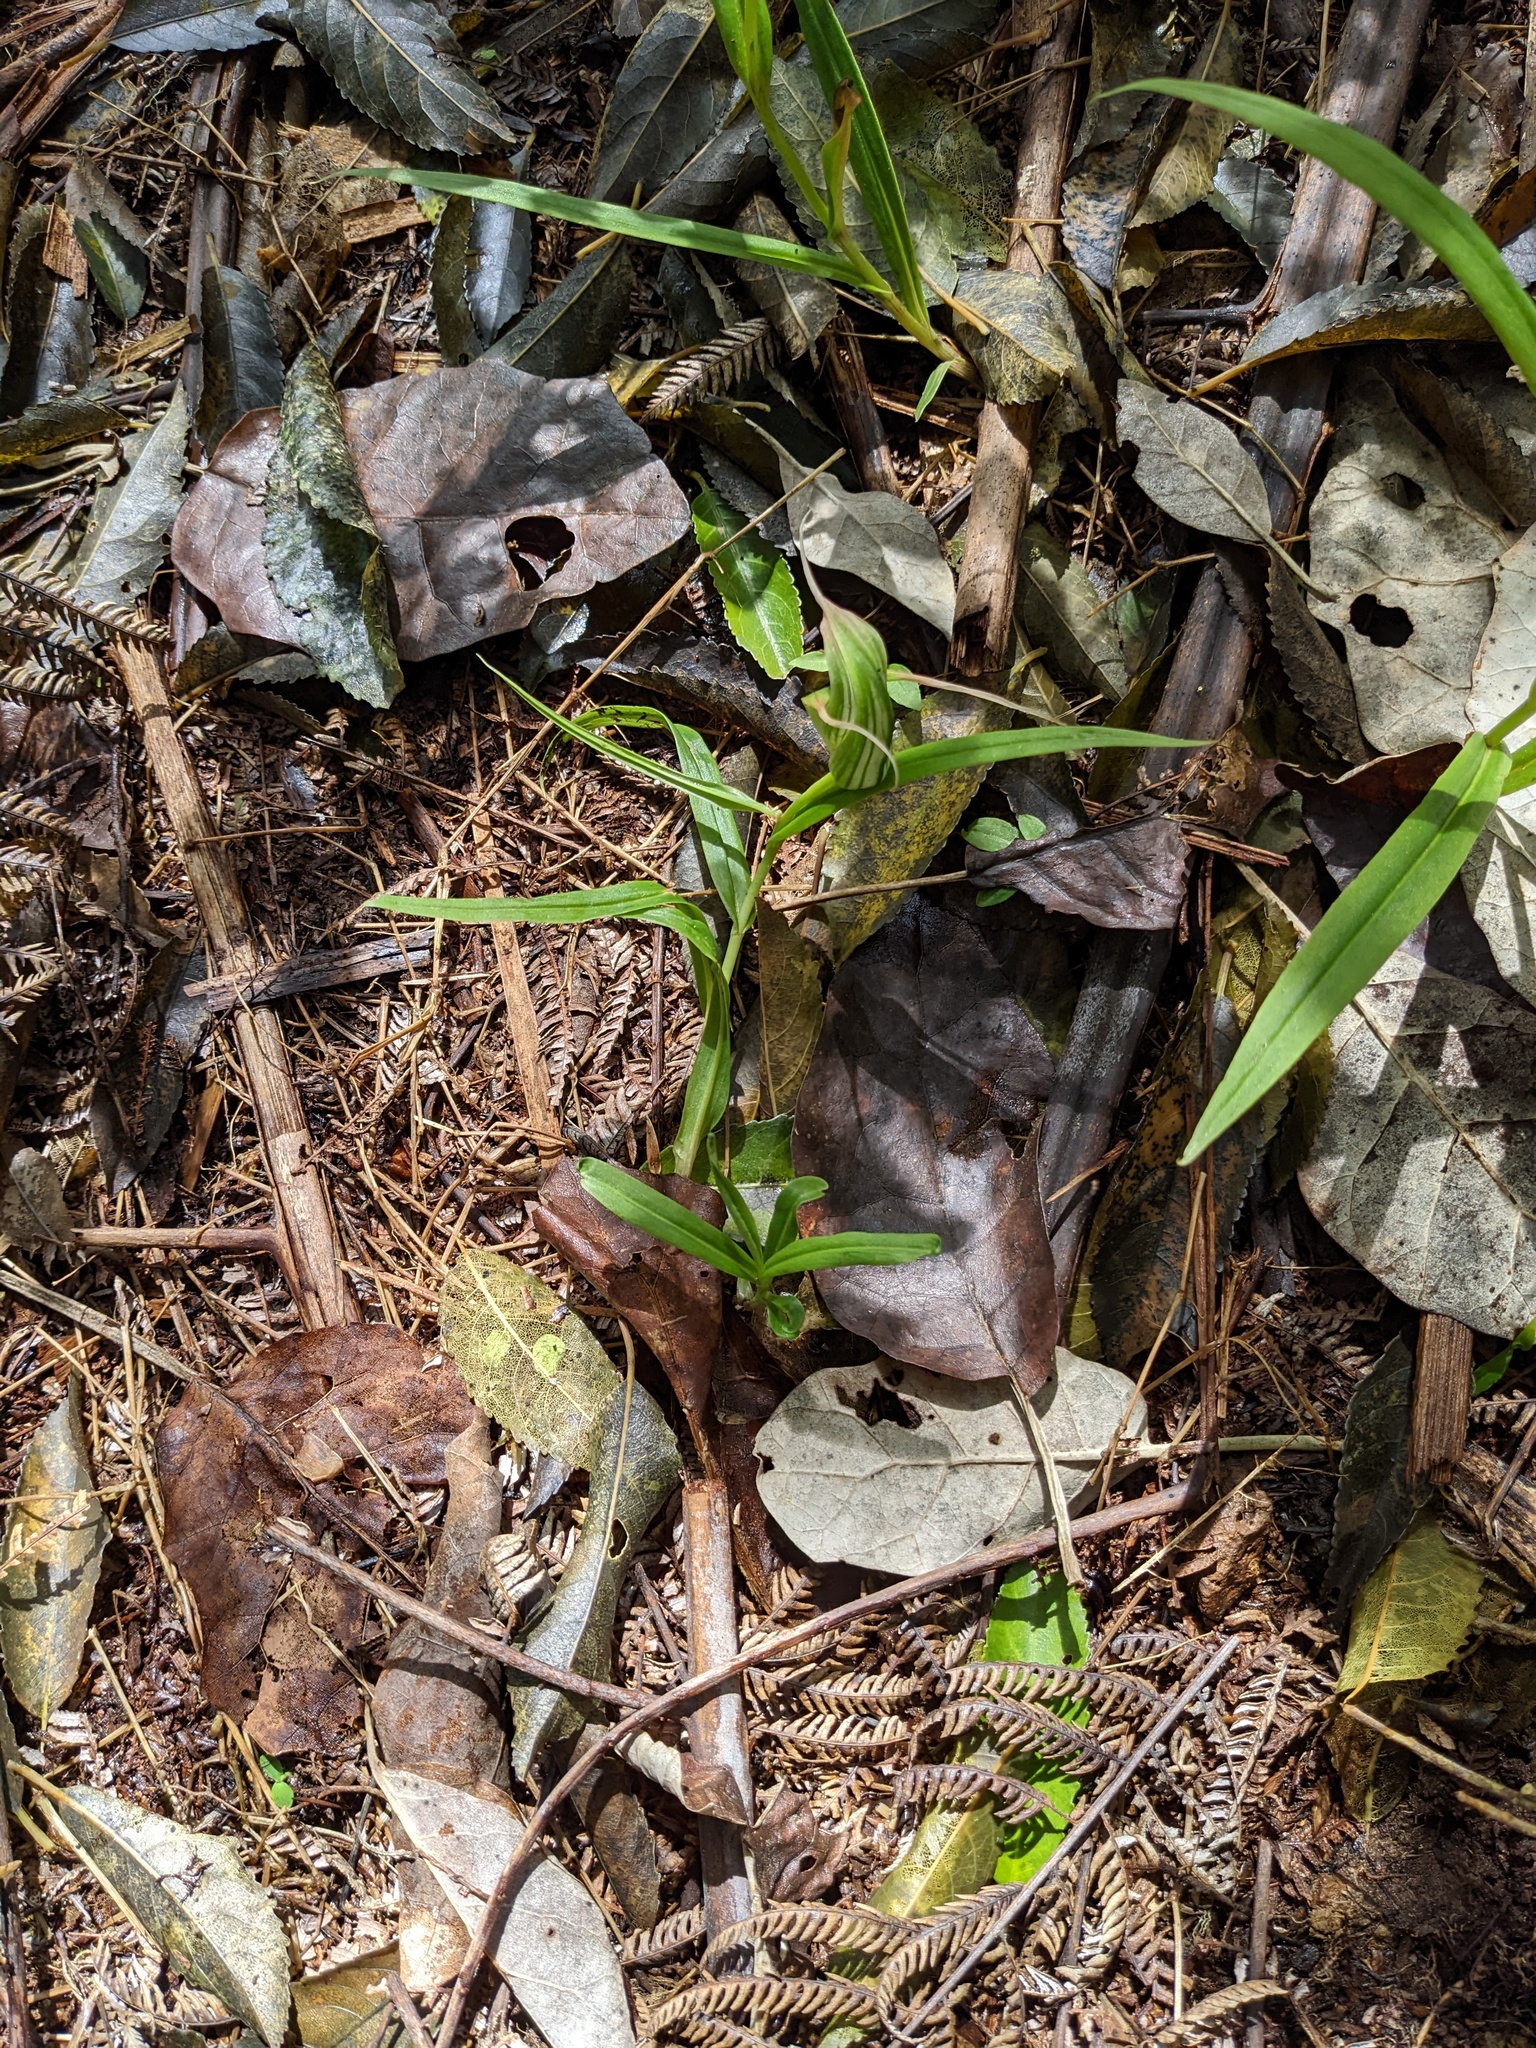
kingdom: Plantae
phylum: Tracheophyta
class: Liliopsida
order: Asparagales
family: Orchidaceae
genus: Pterostylis
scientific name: Pterostylis banksii
